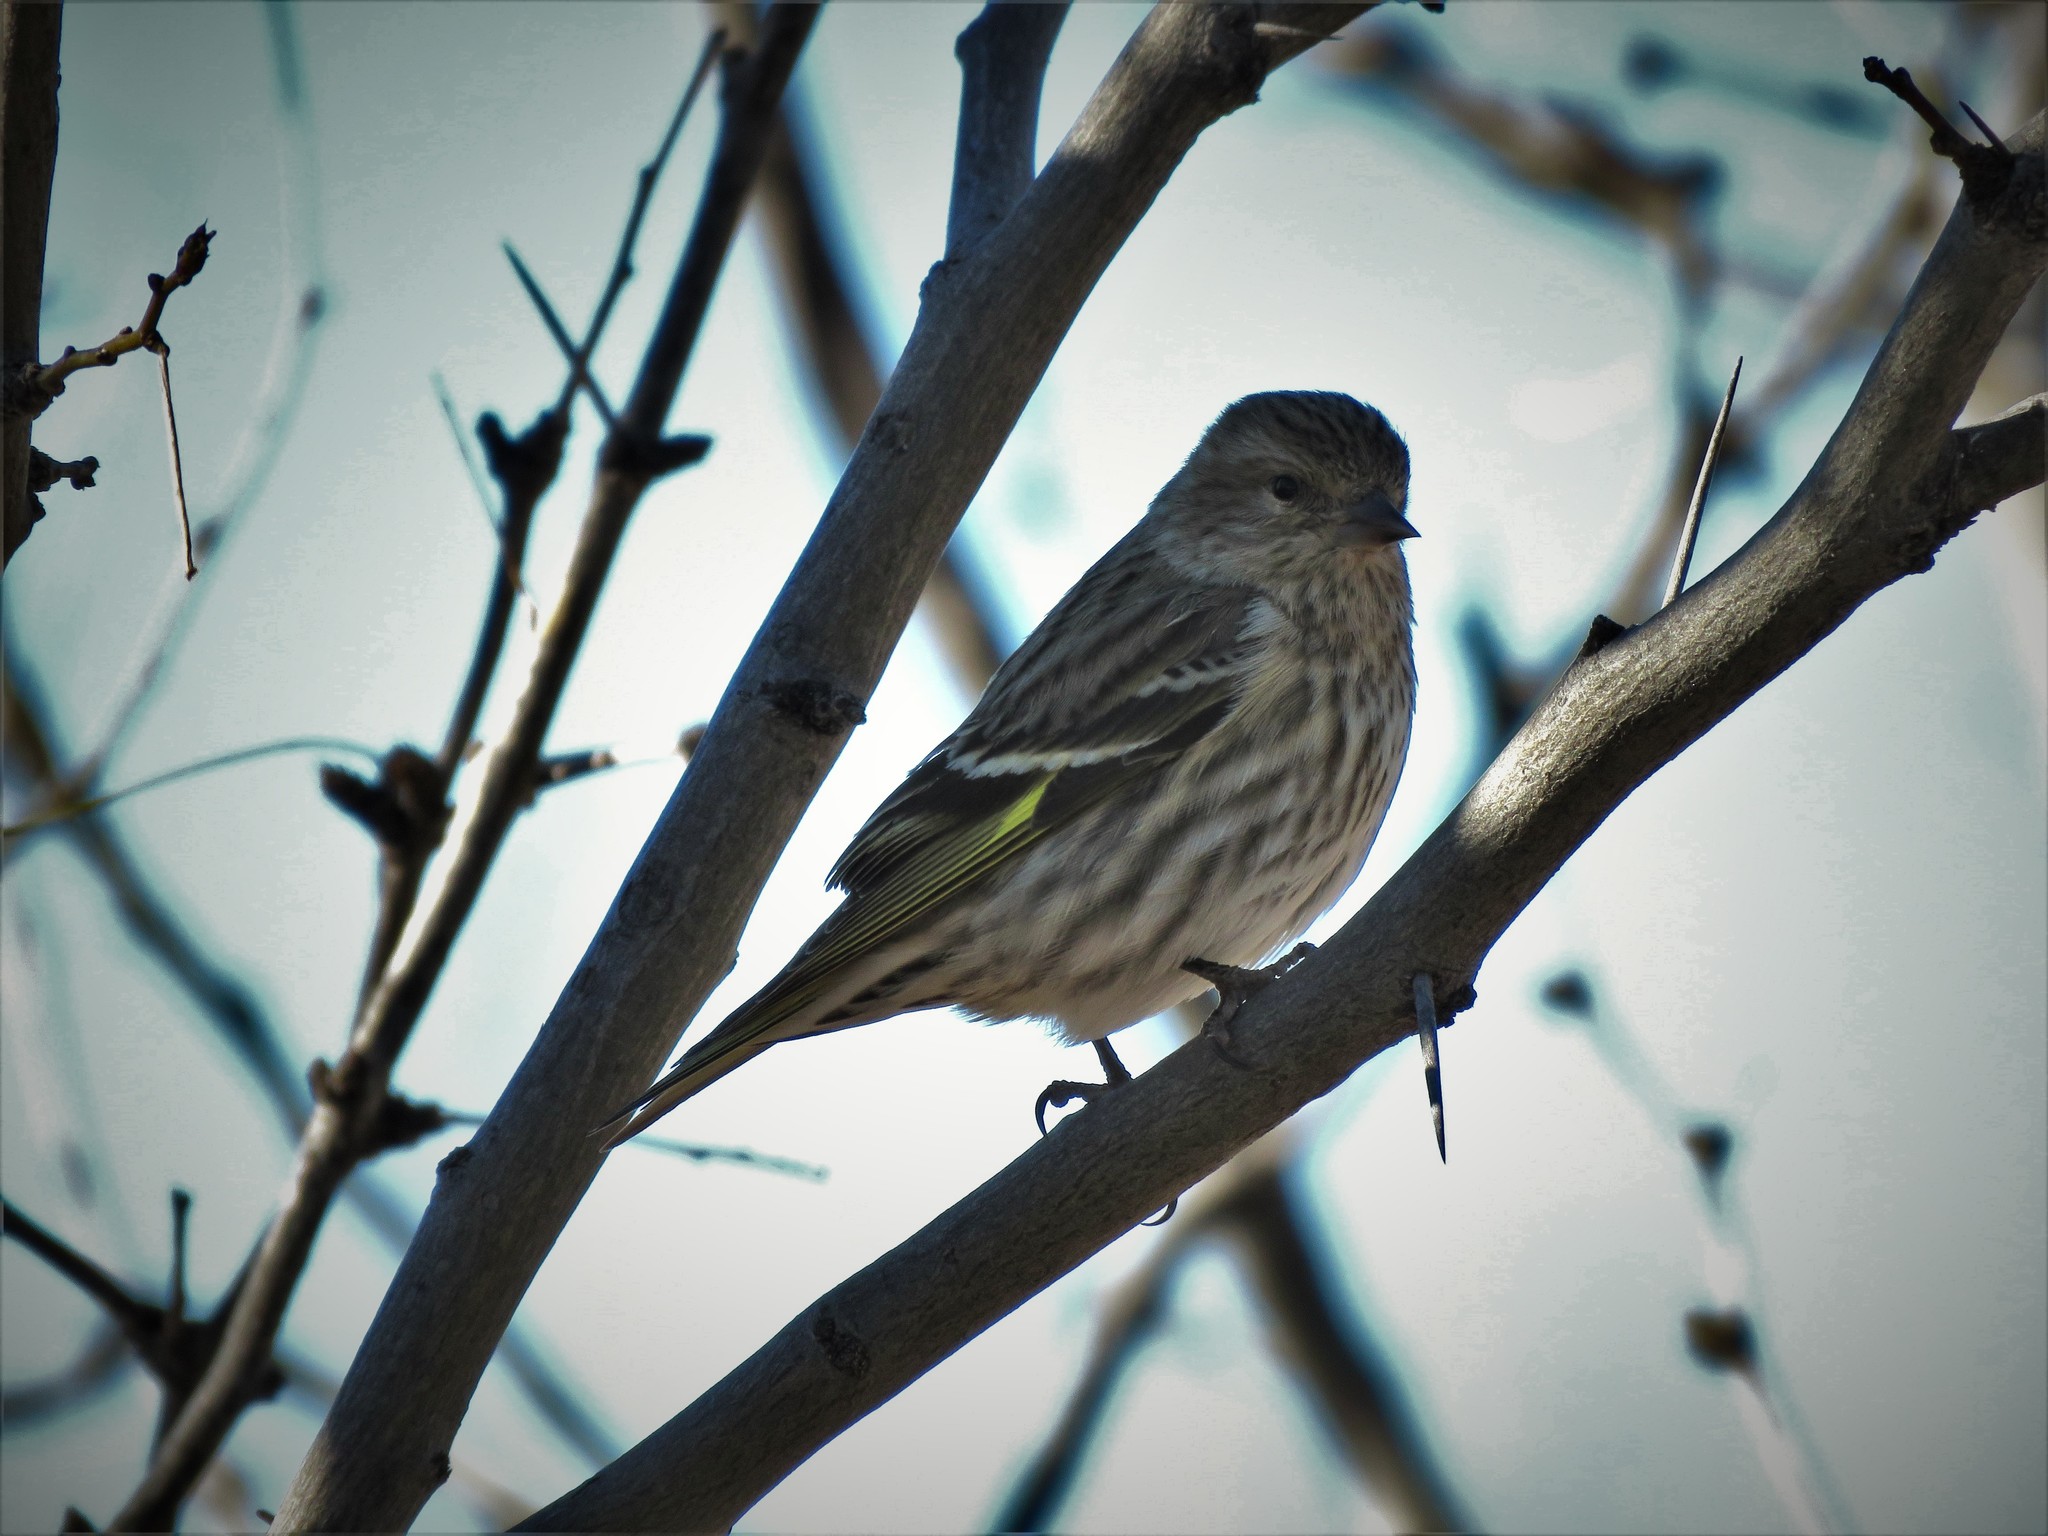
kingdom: Animalia
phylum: Chordata
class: Aves
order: Passeriformes
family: Fringillidae
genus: Spinus
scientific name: Spinus pinus
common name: Pine siskin
